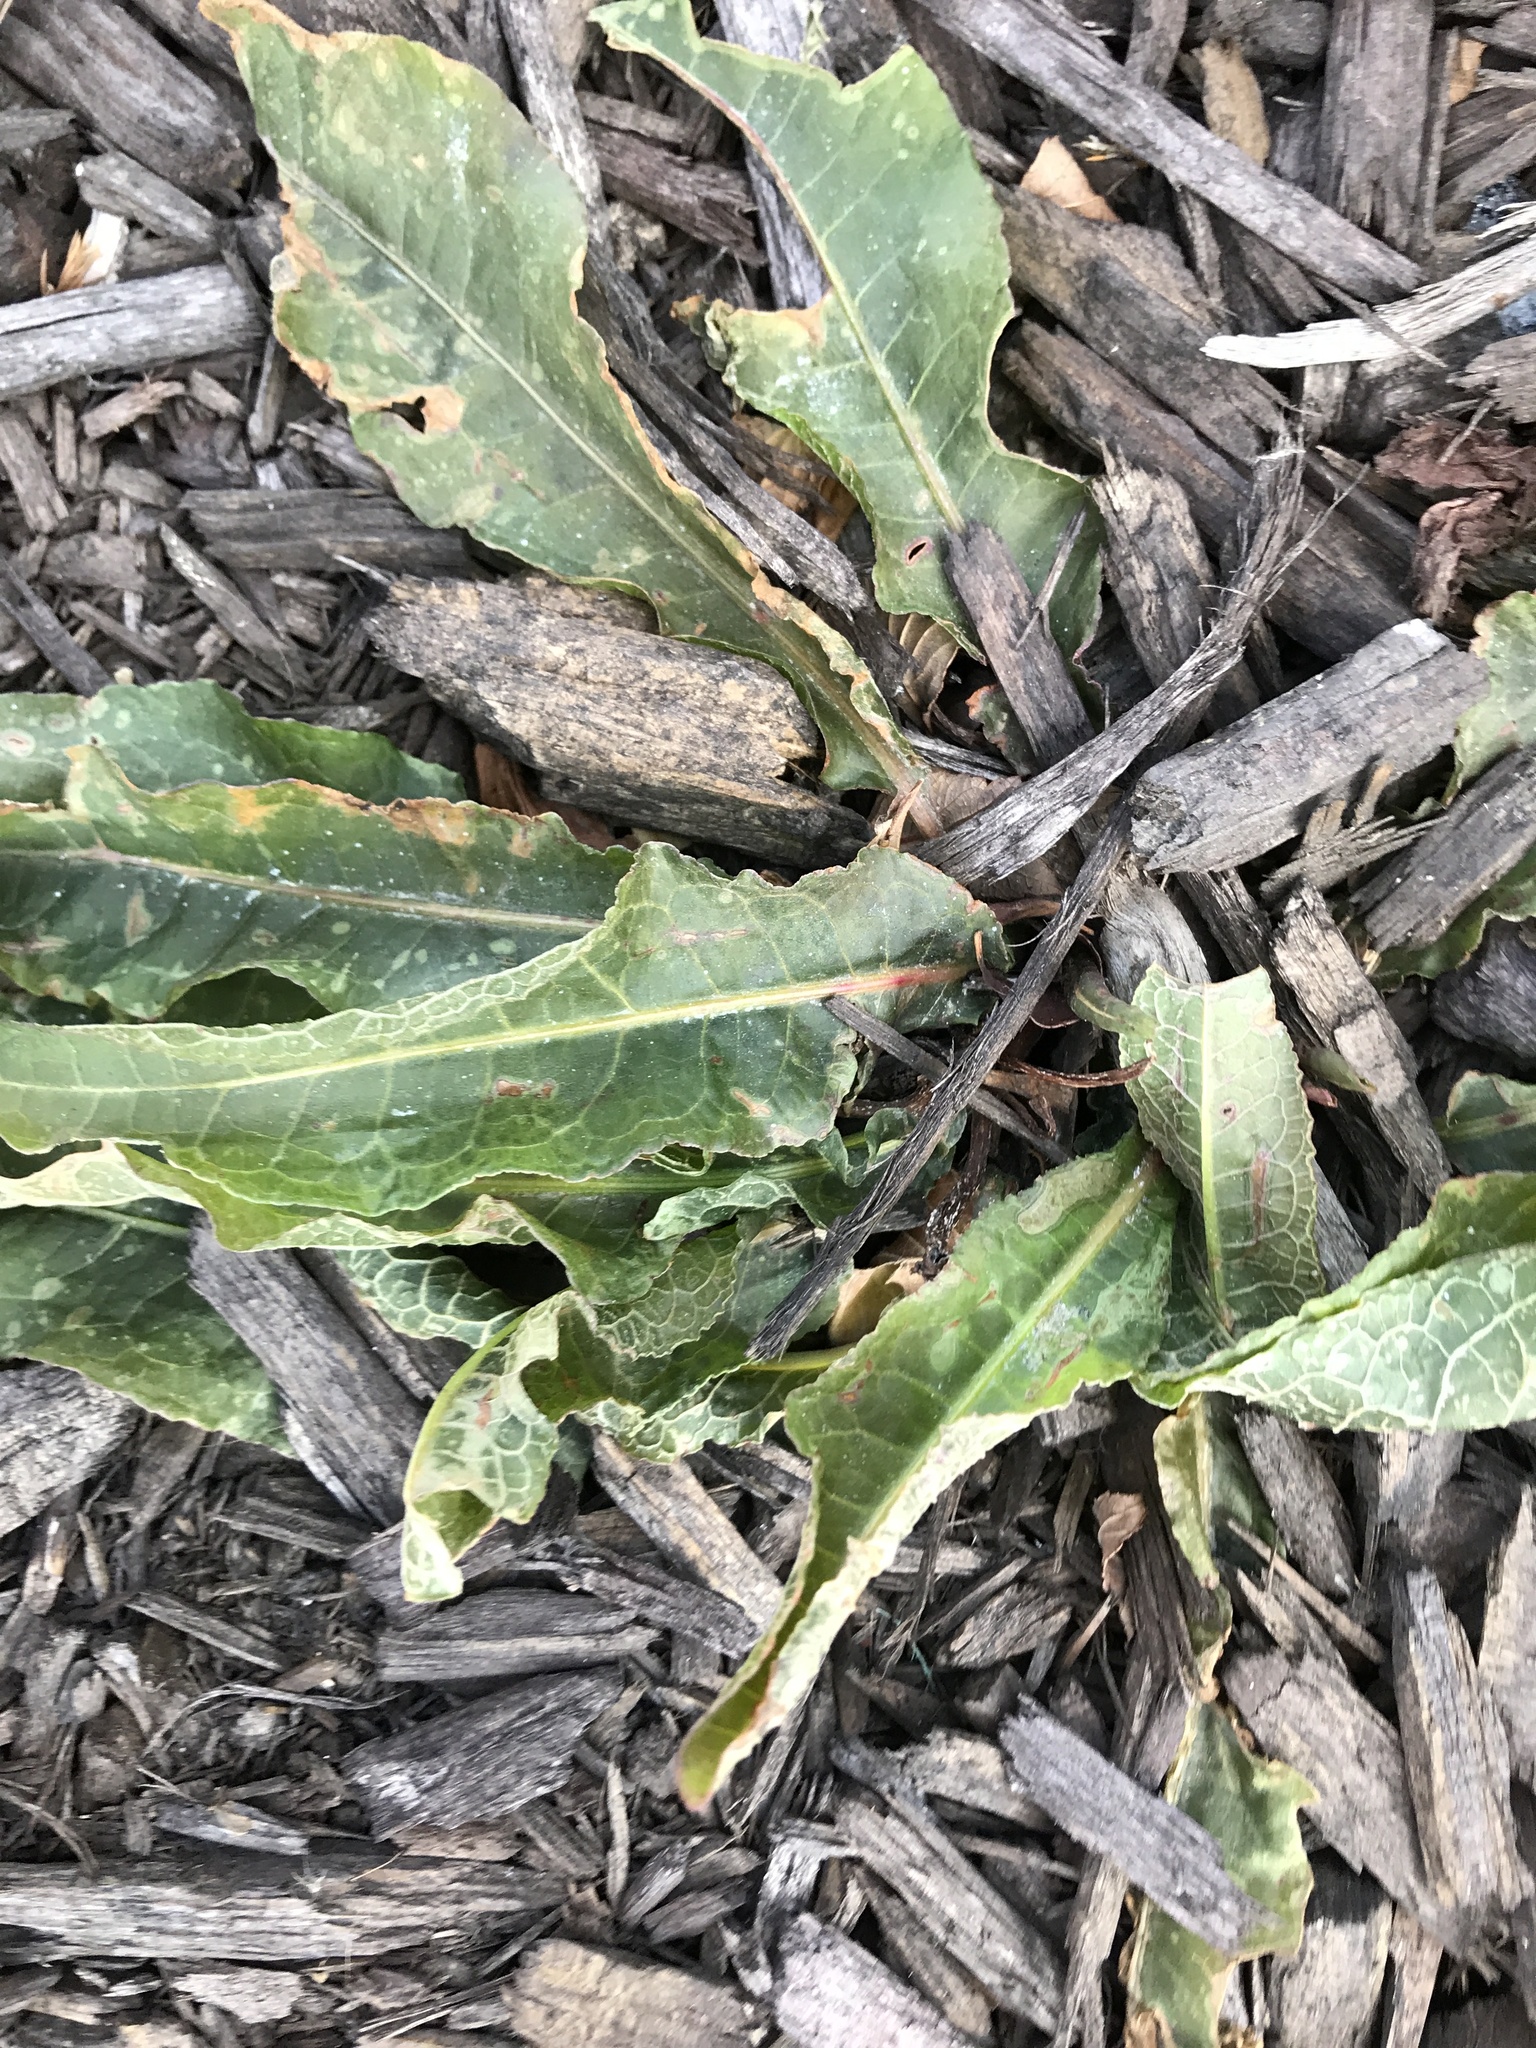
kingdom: Plantae
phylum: Tracheophyta
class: Magnoliopsida
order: Caryophyllales
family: Polygonaceae
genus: Rumex
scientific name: Rumex crispus
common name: Curled dock
